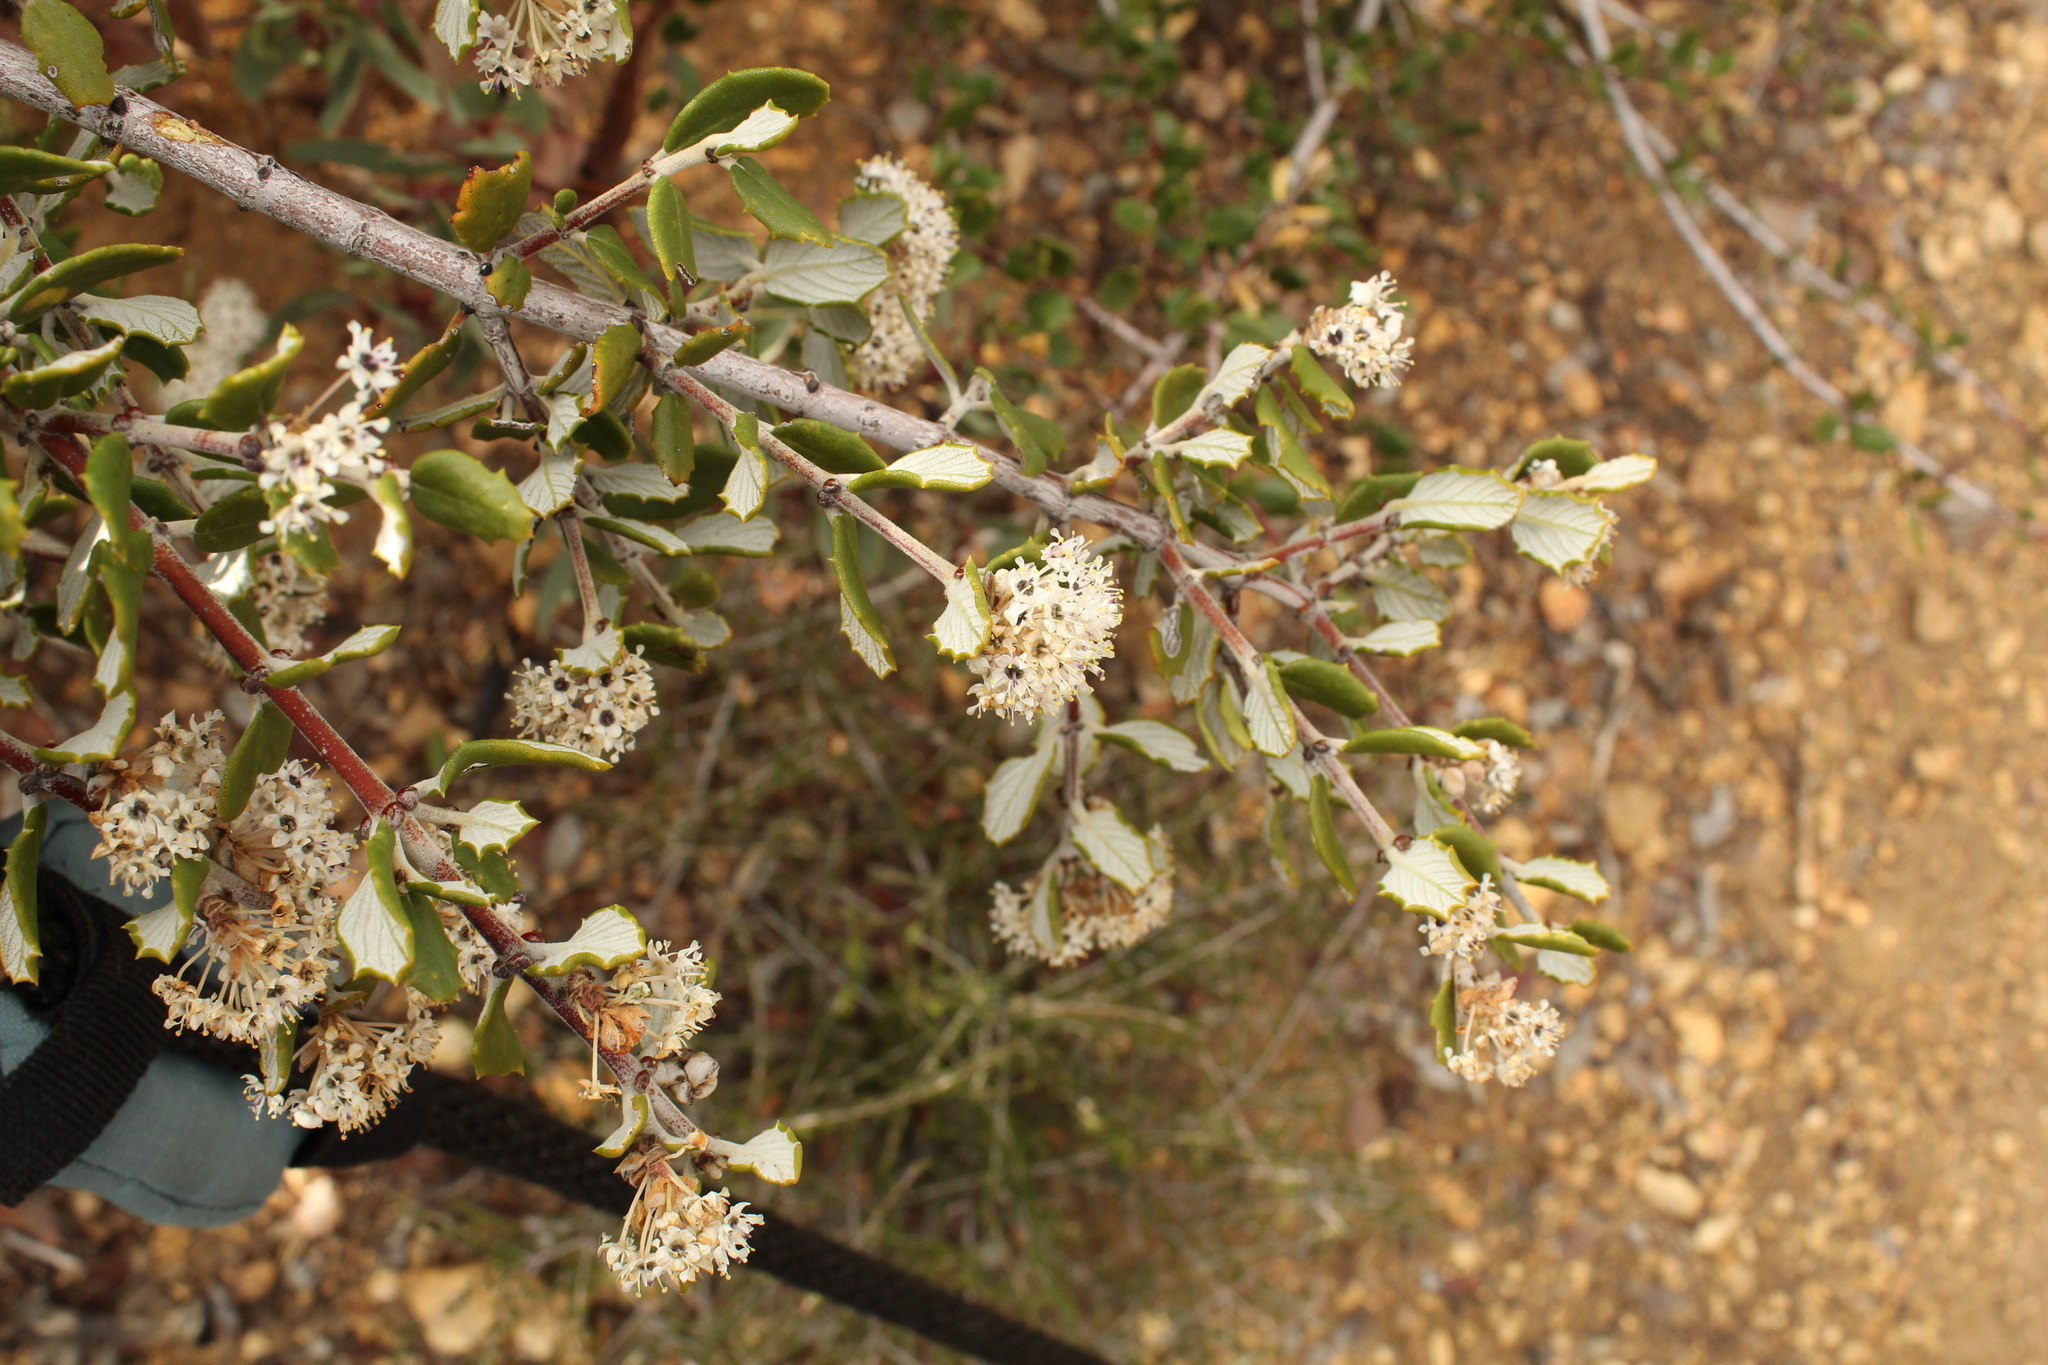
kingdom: Plantae
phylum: Tracheophyta
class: Magnoliopsida
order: Rosales
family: Rhamnaceae
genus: Ceanothus
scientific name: Ceanothus crassifolius
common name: Hoaryleaf ceanothus
